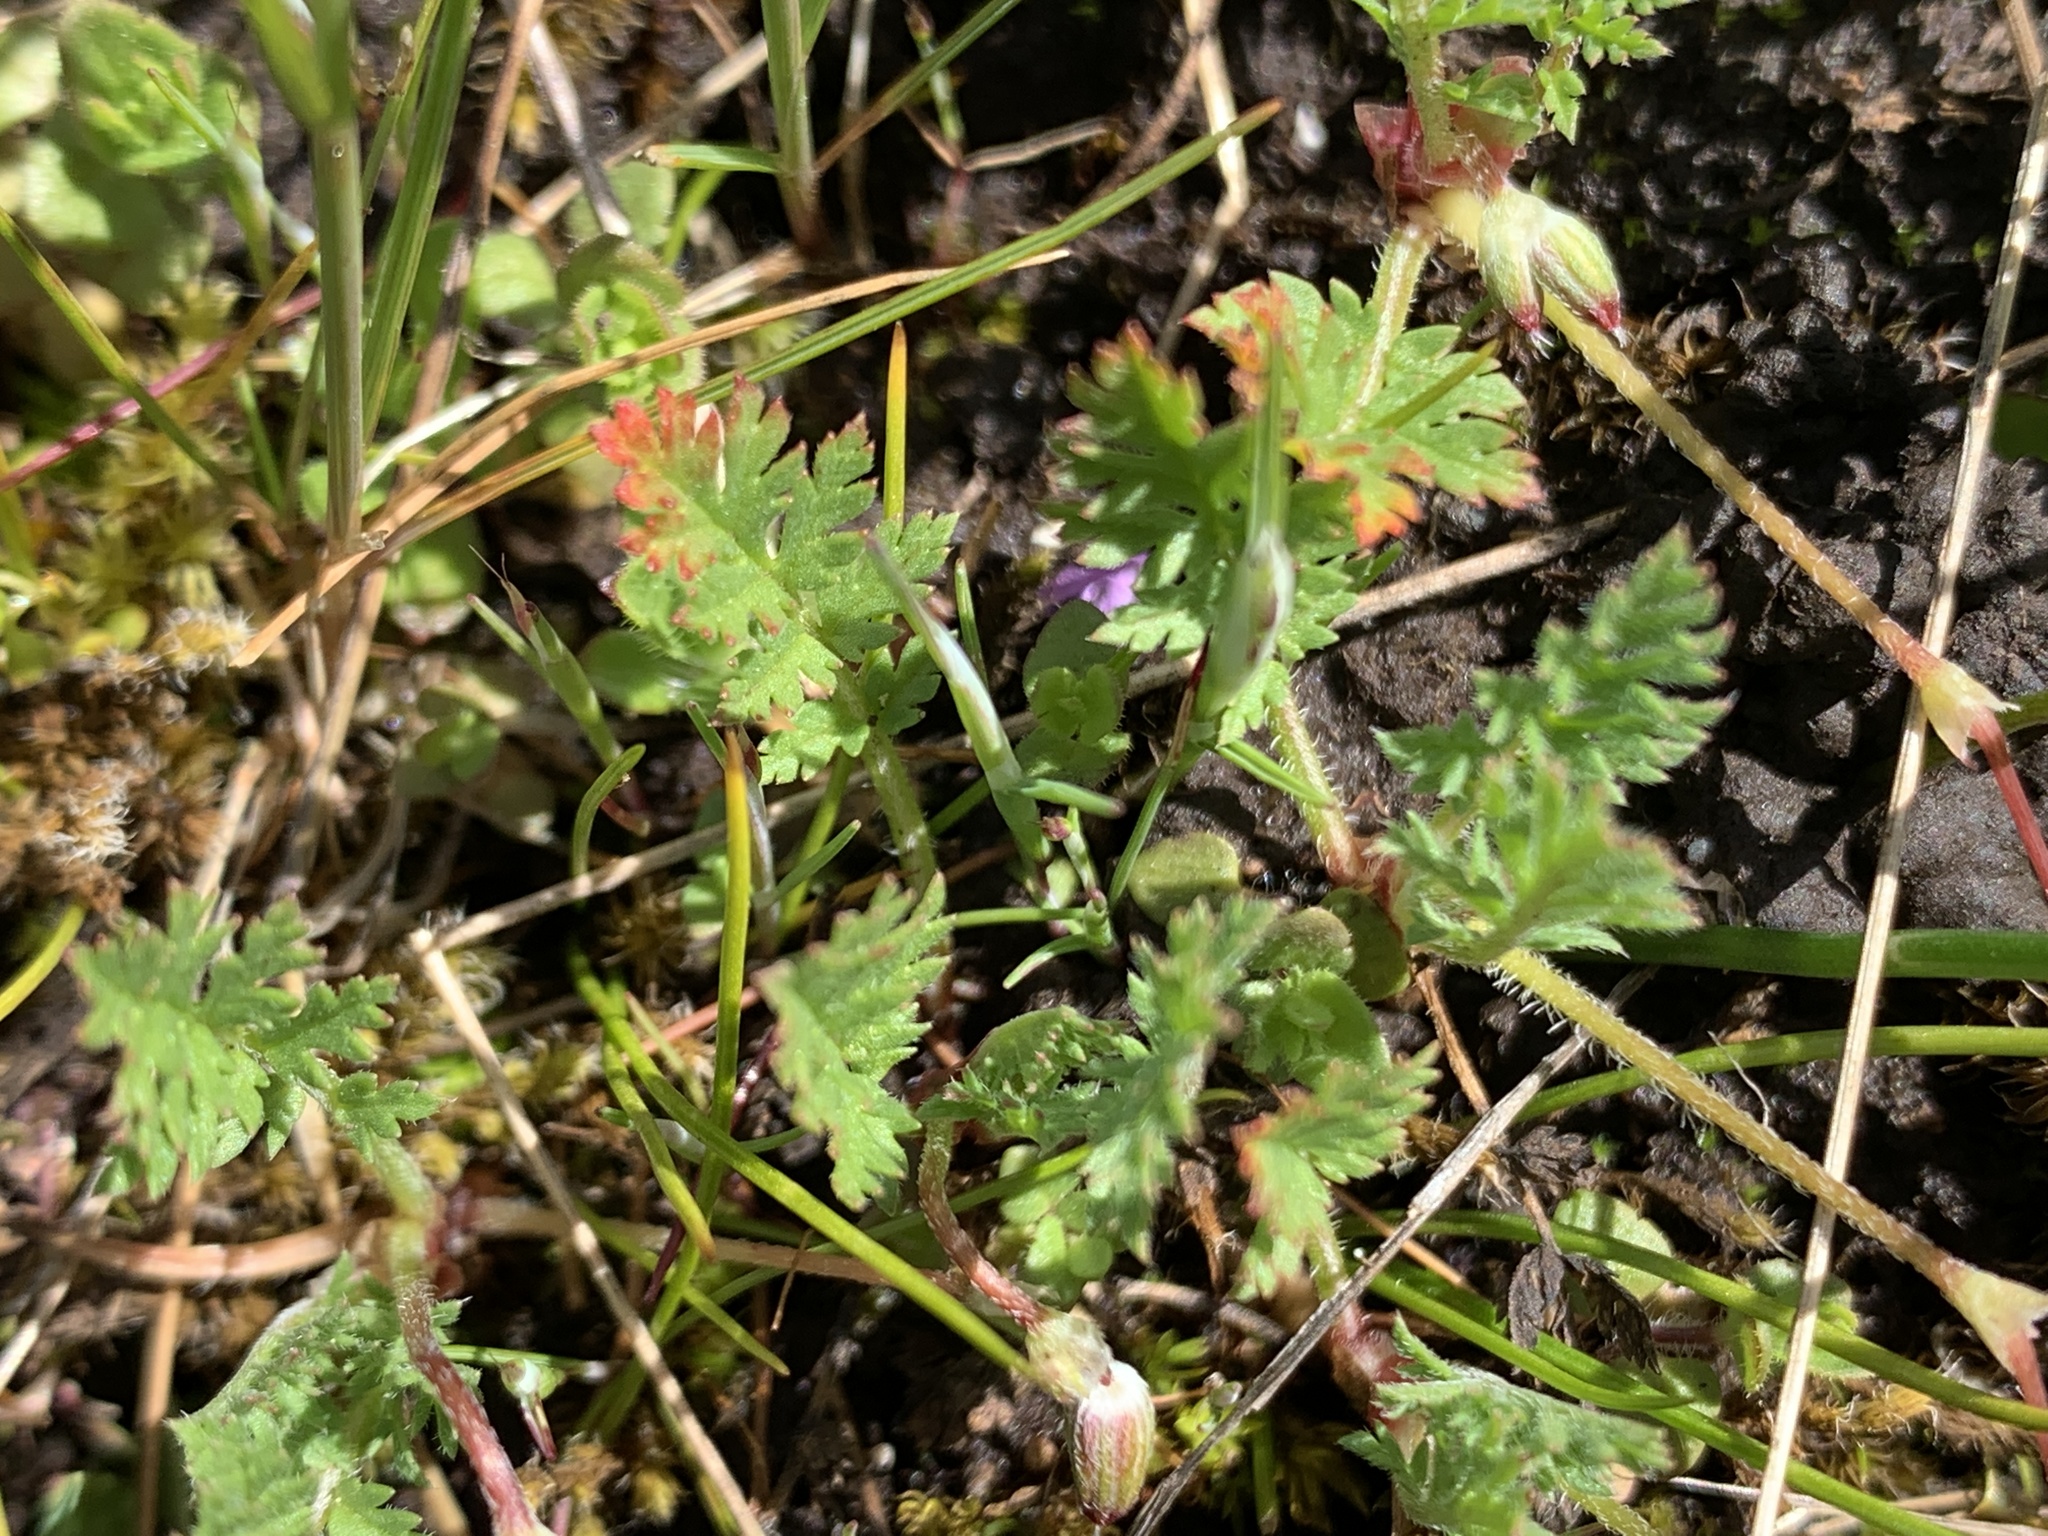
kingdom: Plantae
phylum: Tracheophyta
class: Magnoliopsida
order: Geraniales
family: Geraniaceae
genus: Erodium
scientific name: Erodium cicutarium
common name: Common stork's-bill
